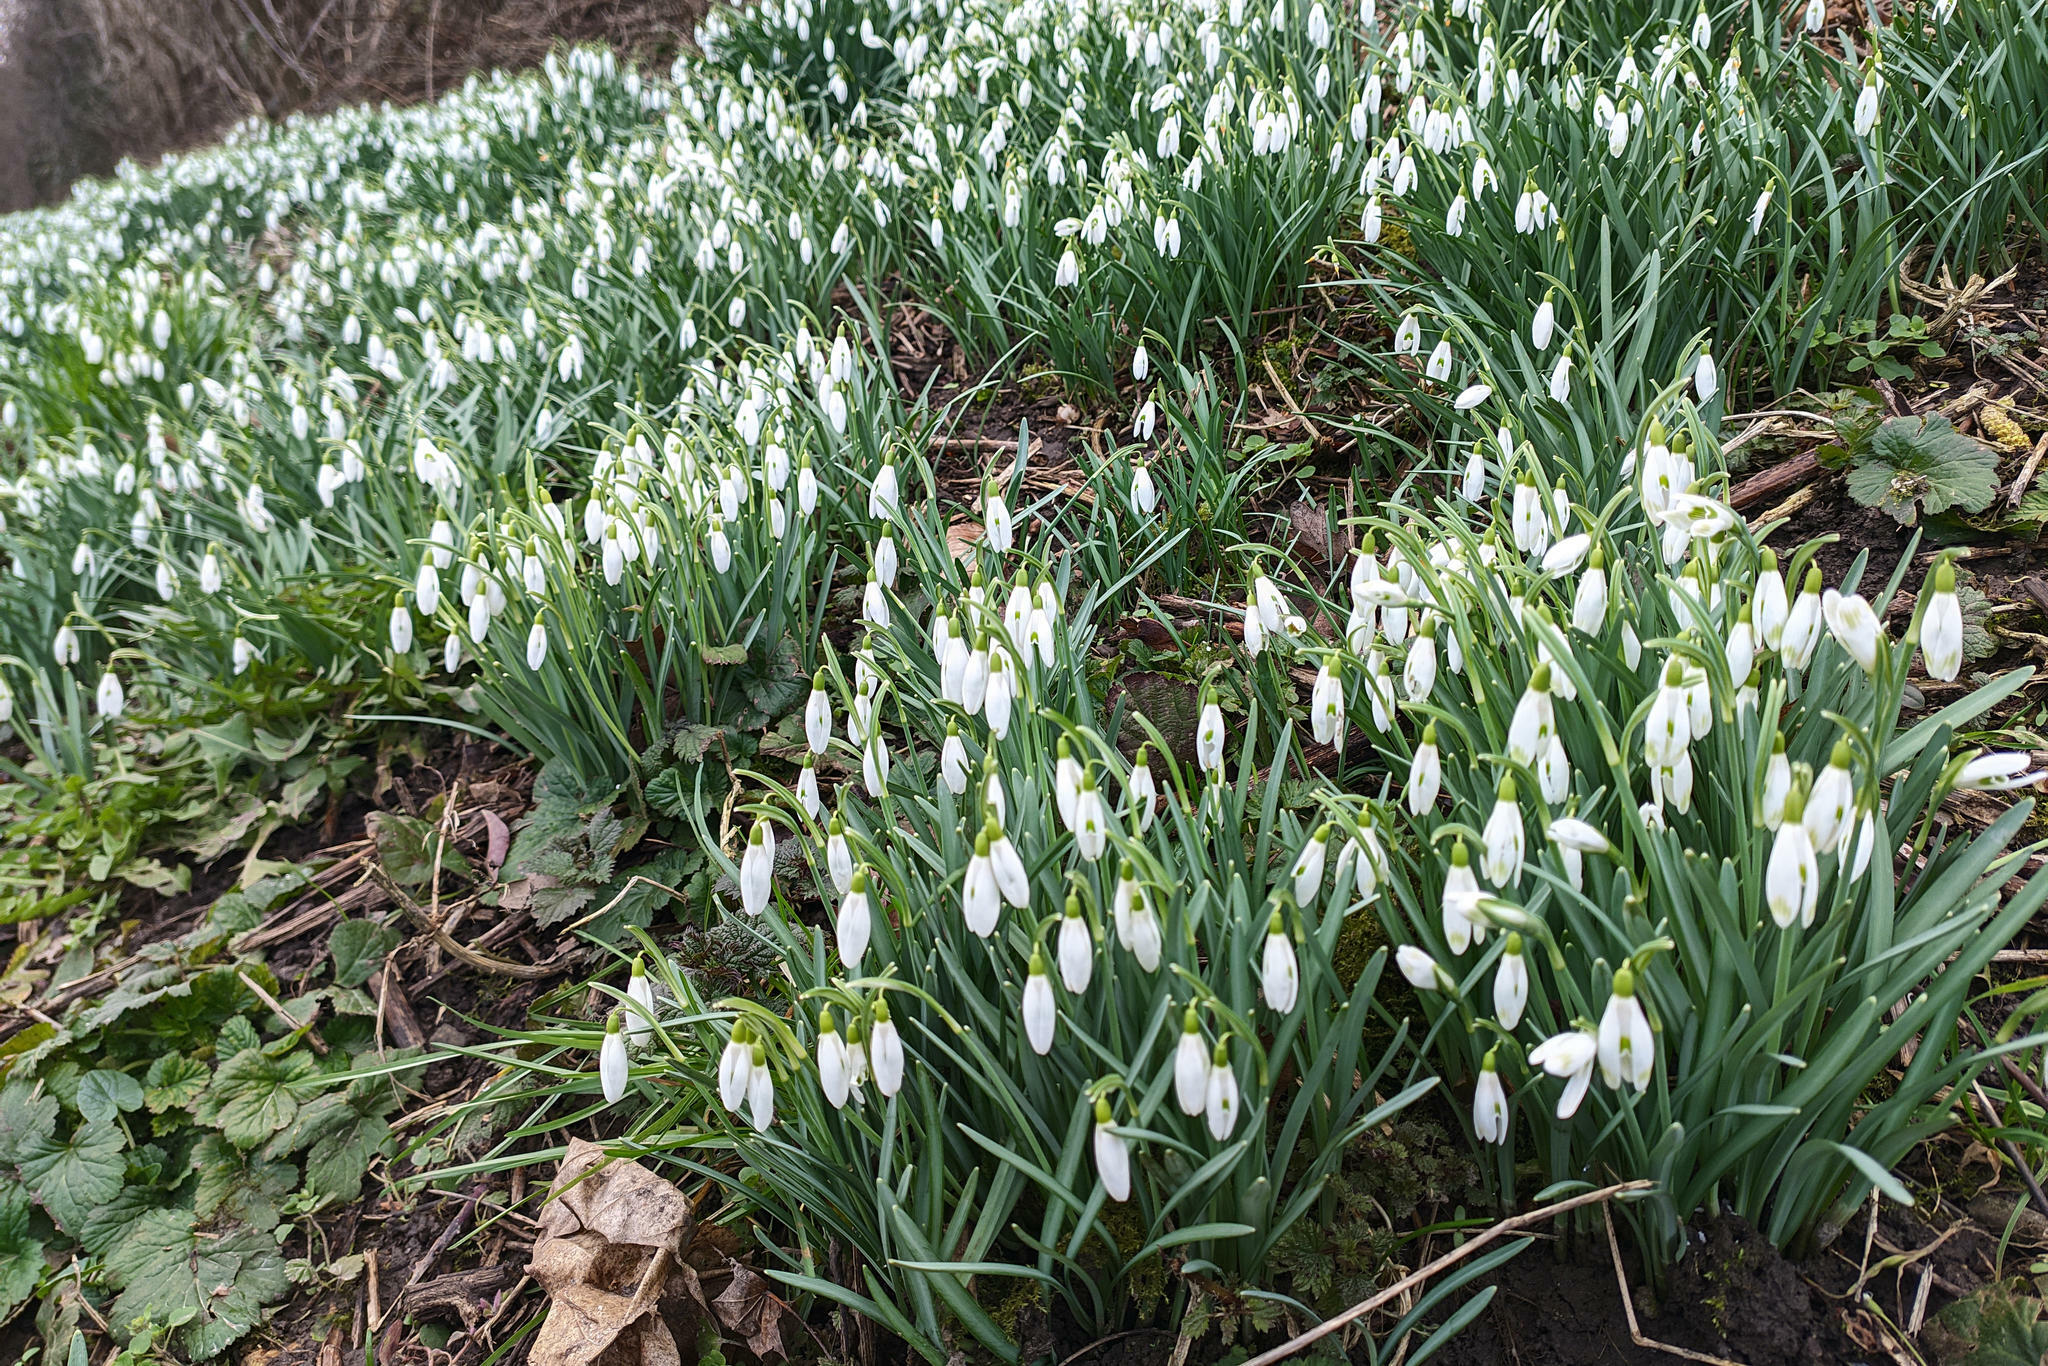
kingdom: Plantae
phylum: Tracheophyta
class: Liliopsida
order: Asparagales
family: Amaryllidaceae
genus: Galanthus
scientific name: Galanthus nivalis
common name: Snowdrop
